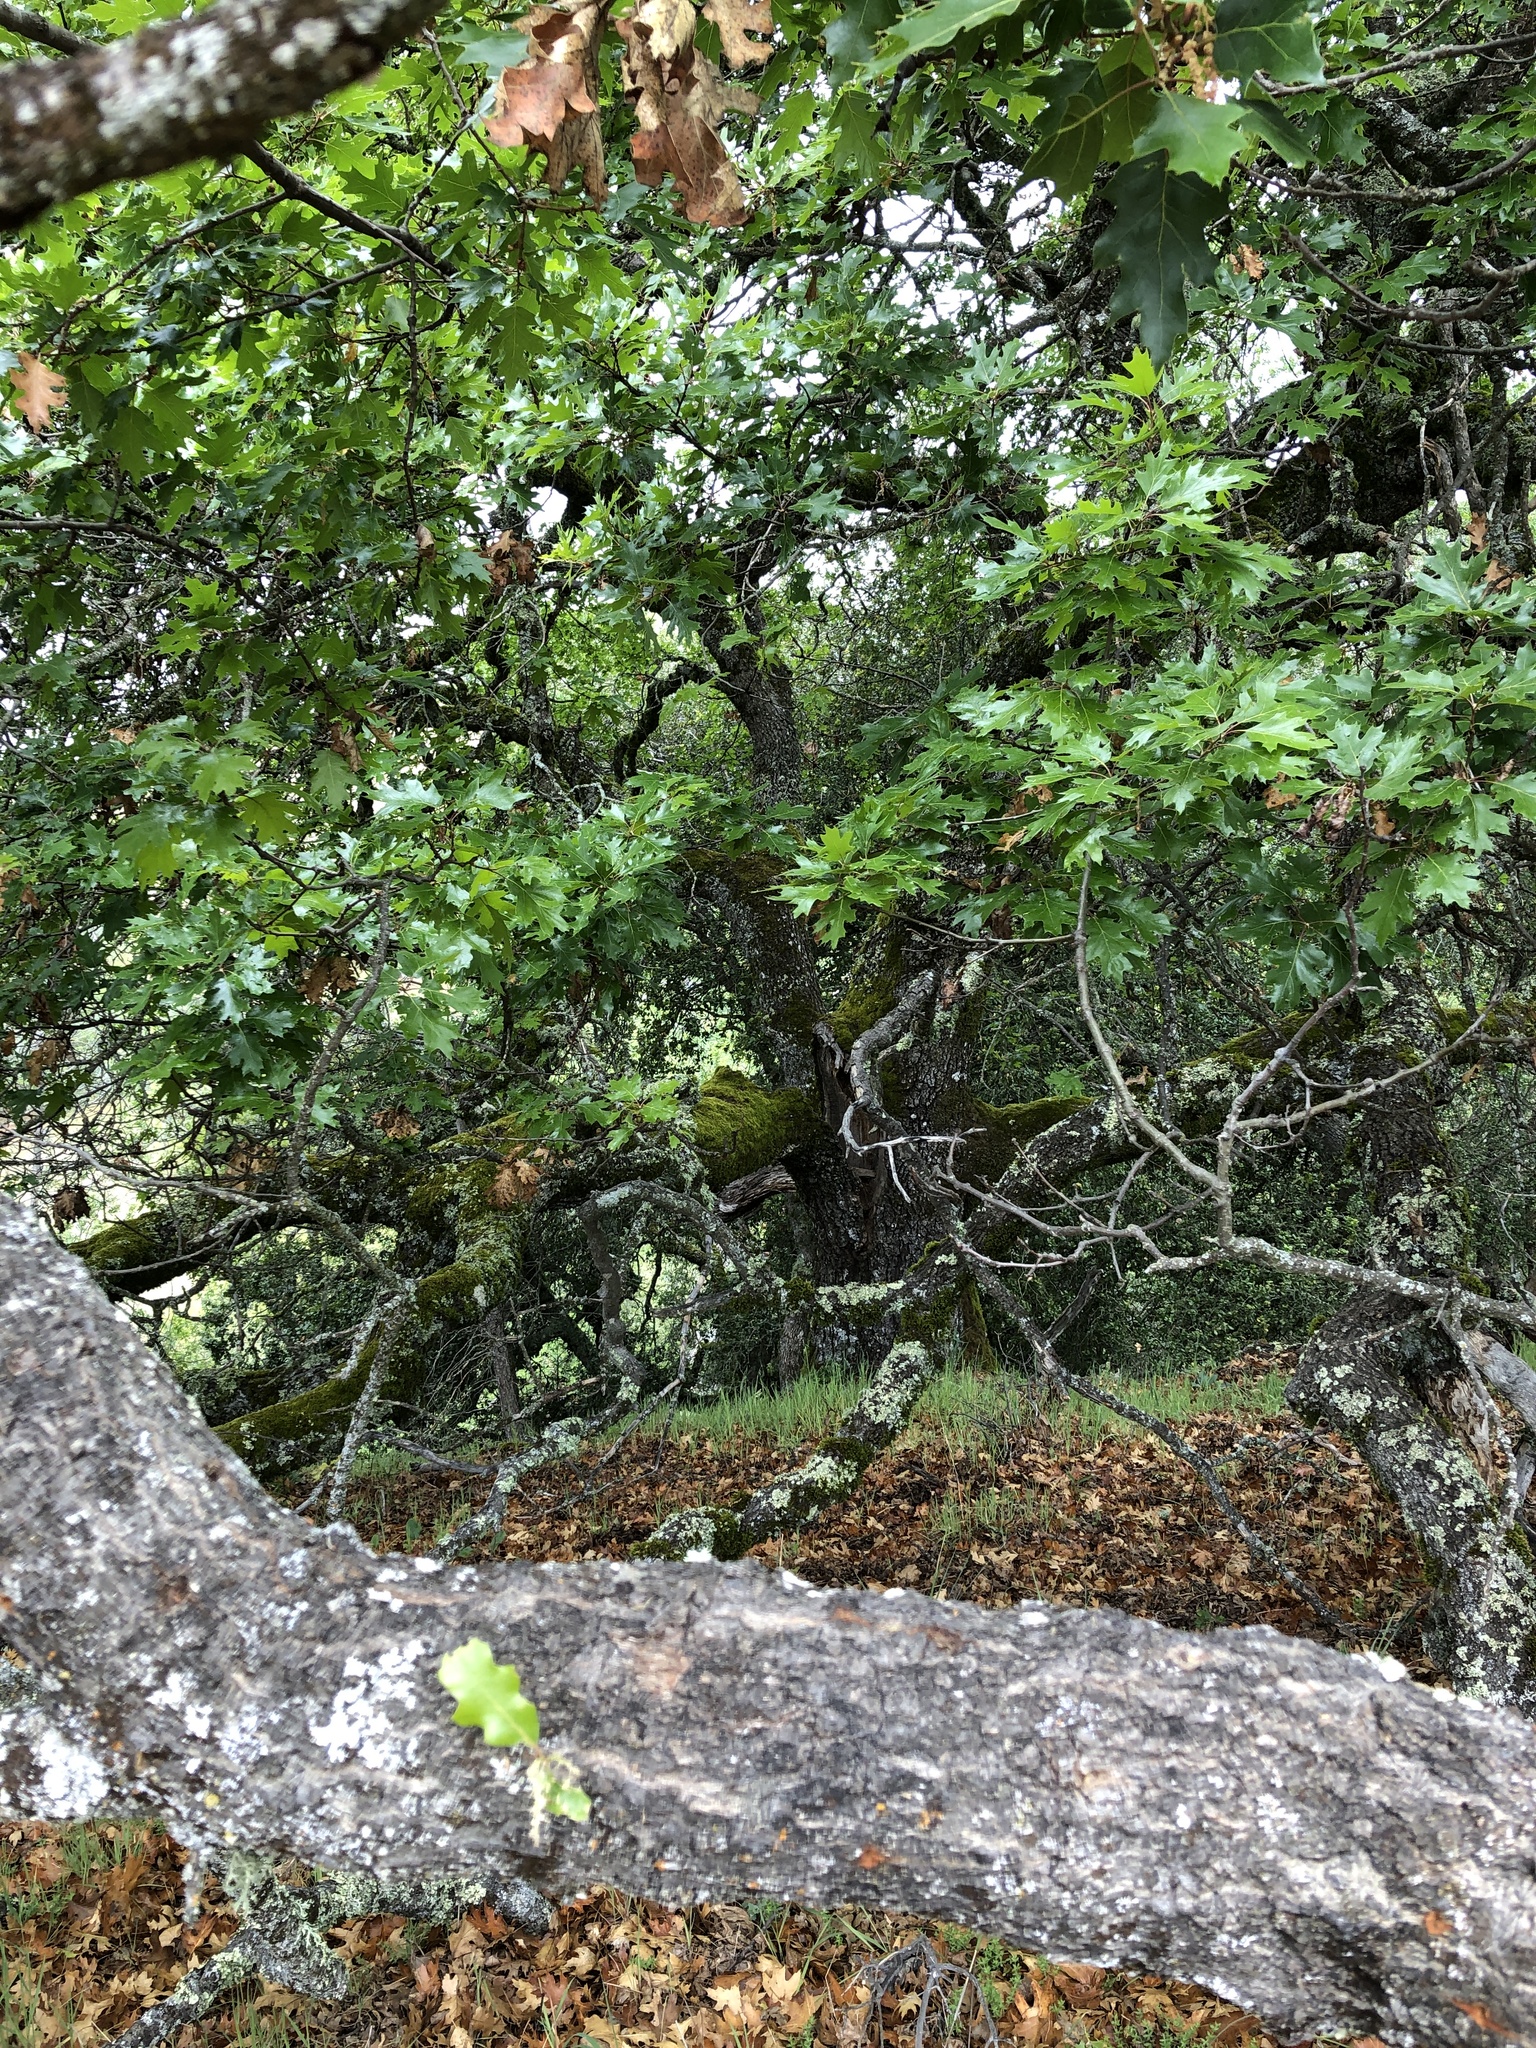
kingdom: Plantae
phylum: Tracheophyta
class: Magnoliopsida
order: Fagales
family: Fagaceae
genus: Quercus
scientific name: Quercus kelloggii
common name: California black oak
